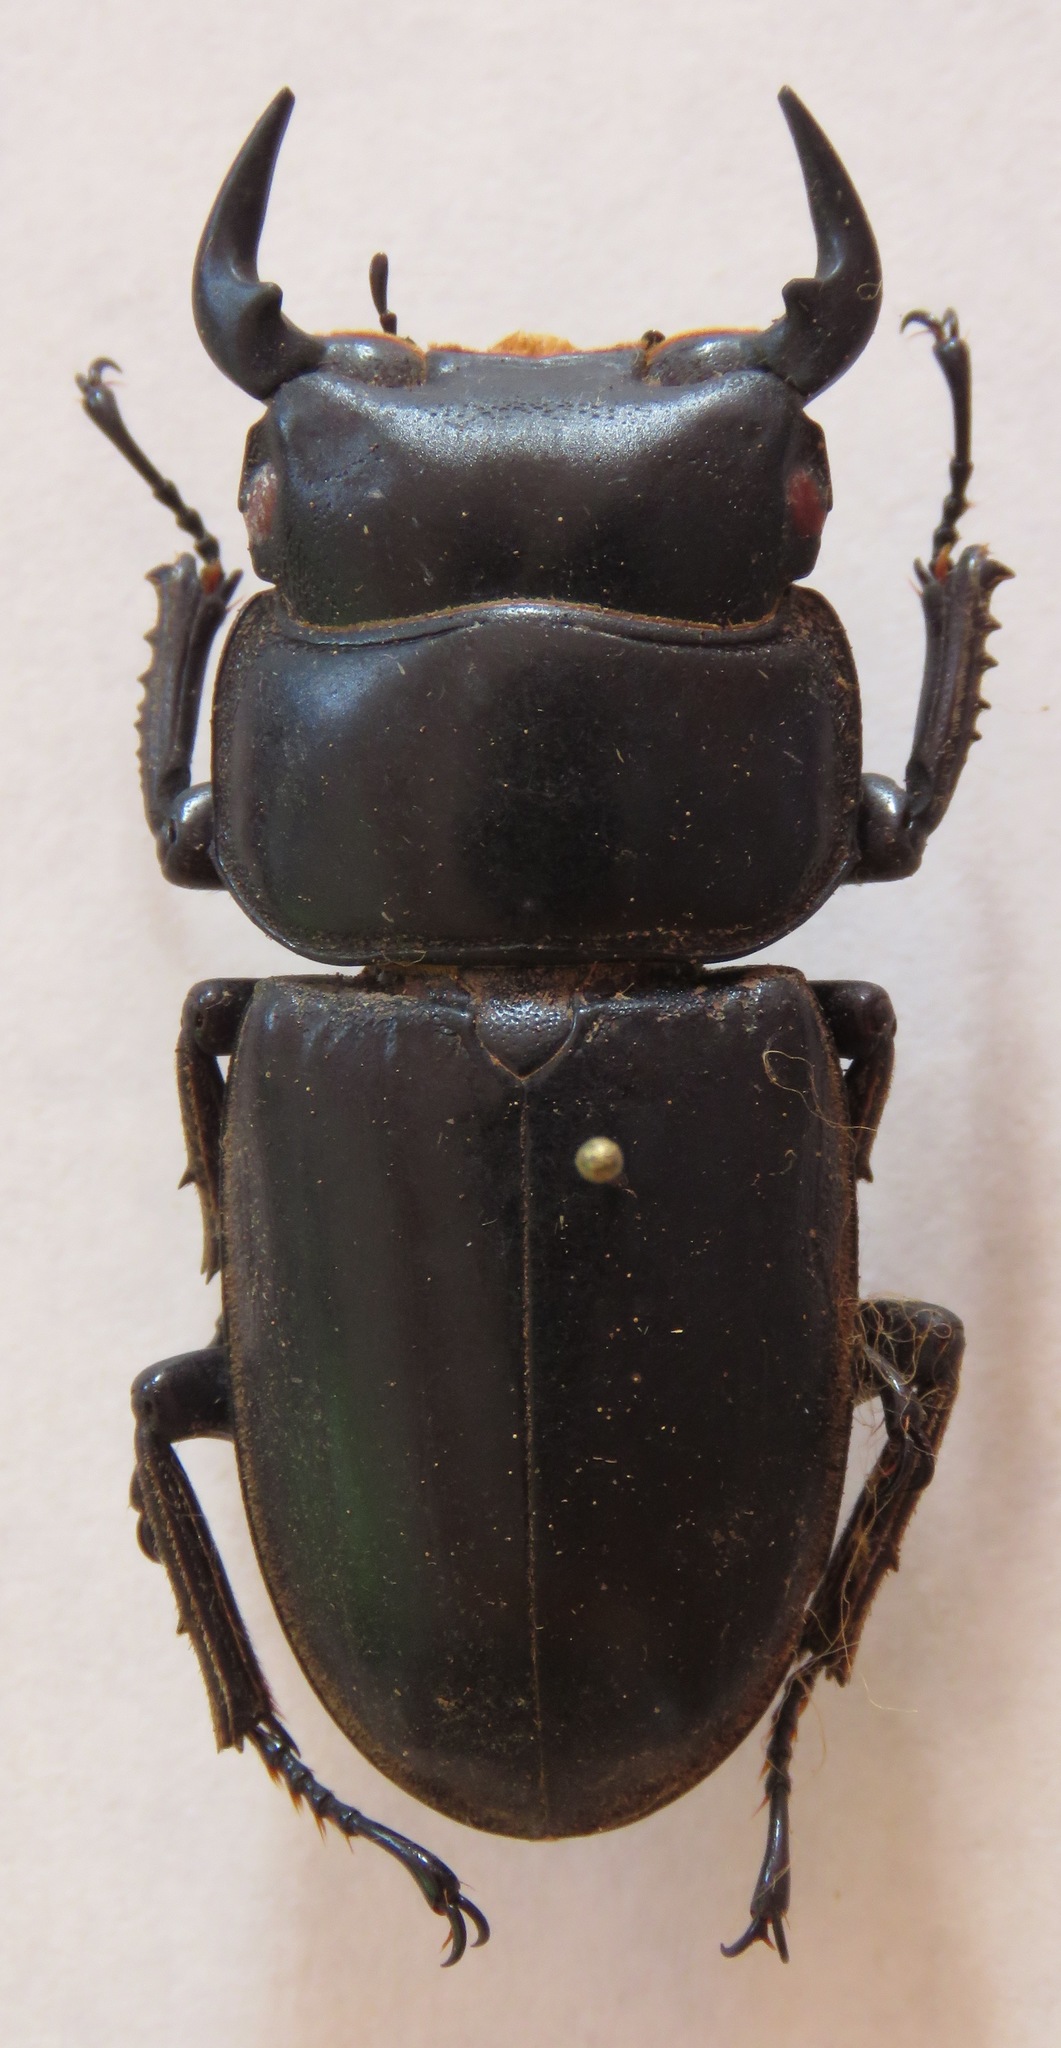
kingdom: Animalia
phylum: Arthropoda
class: Insecta
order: Coleoptera
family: Lucanidae
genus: Dorcus
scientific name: Dorcus antaeus
